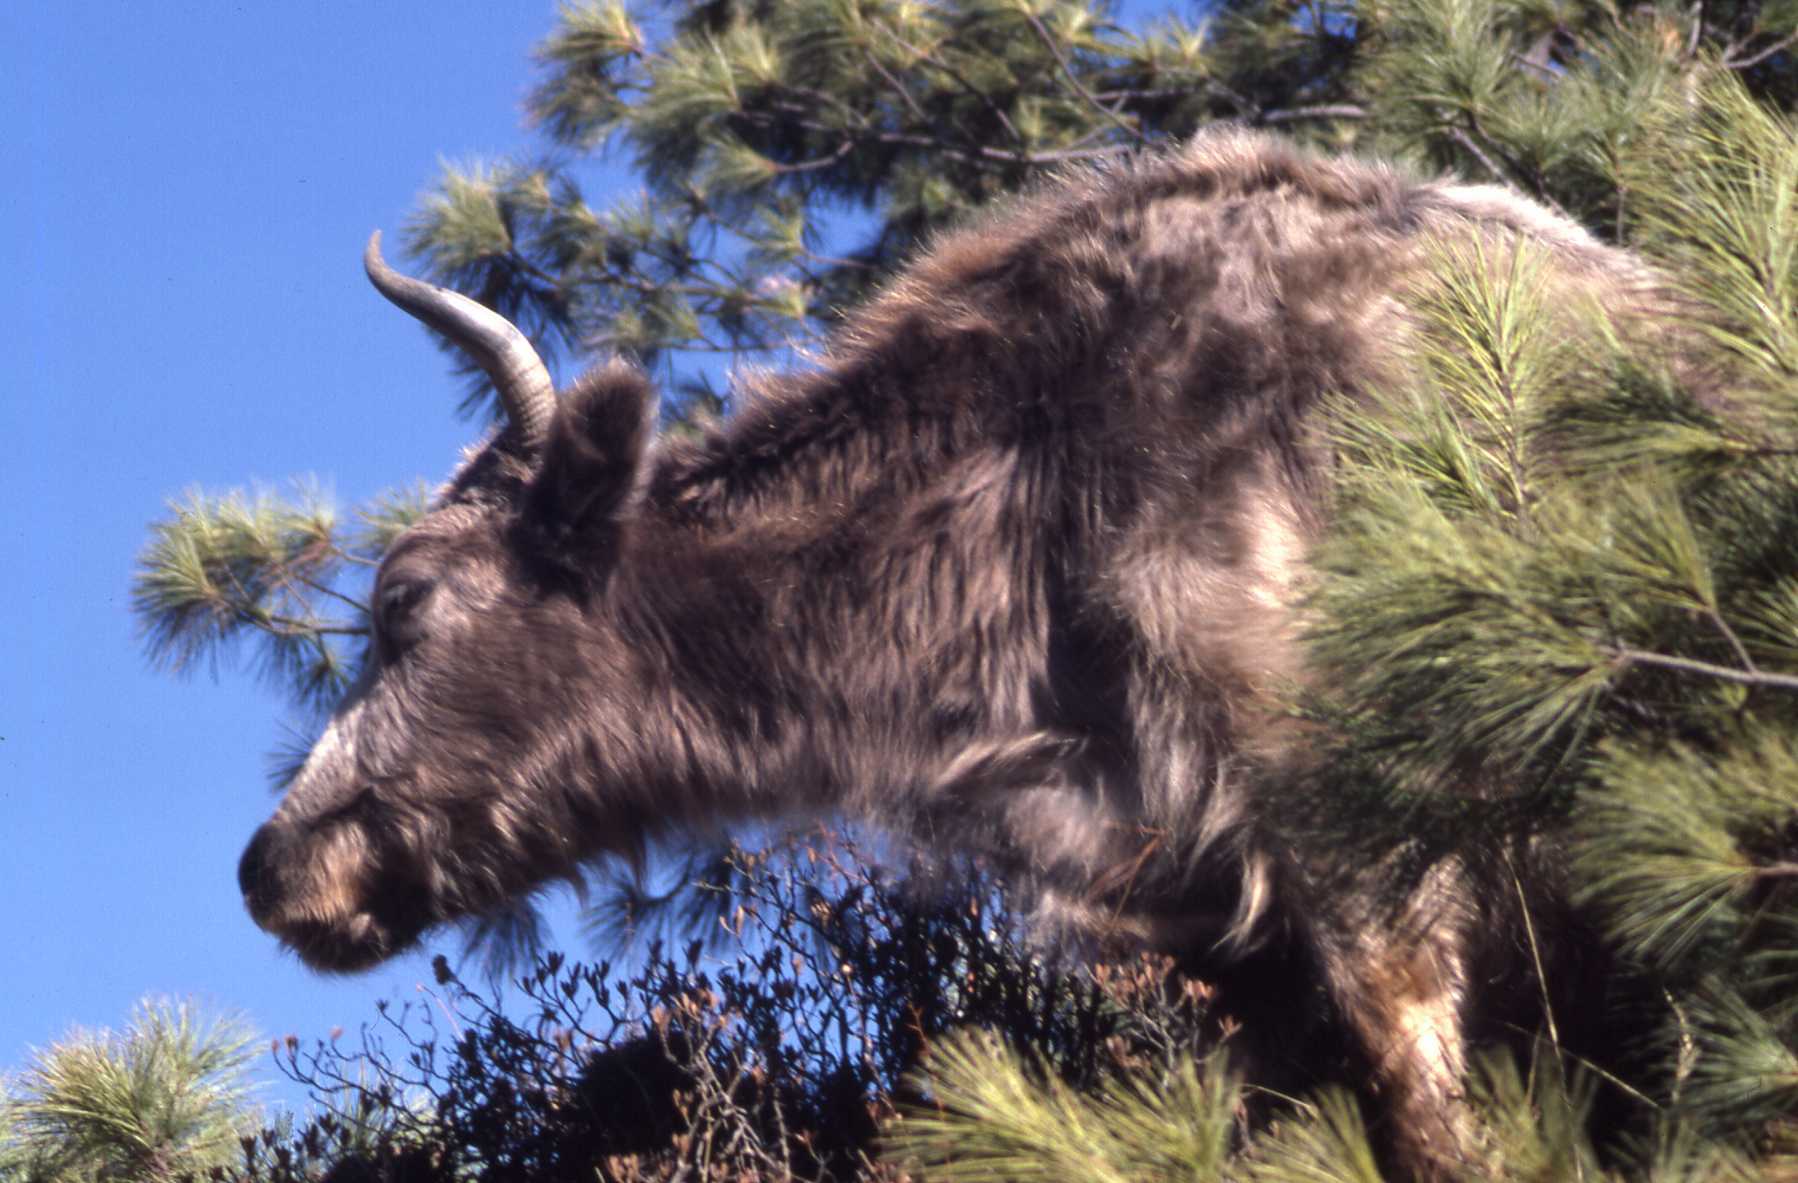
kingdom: Animalia
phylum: Chordata
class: Mammalia
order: Artiodactyla
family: Bovidae
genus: Bos
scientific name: Bos grunniens
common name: Yak
